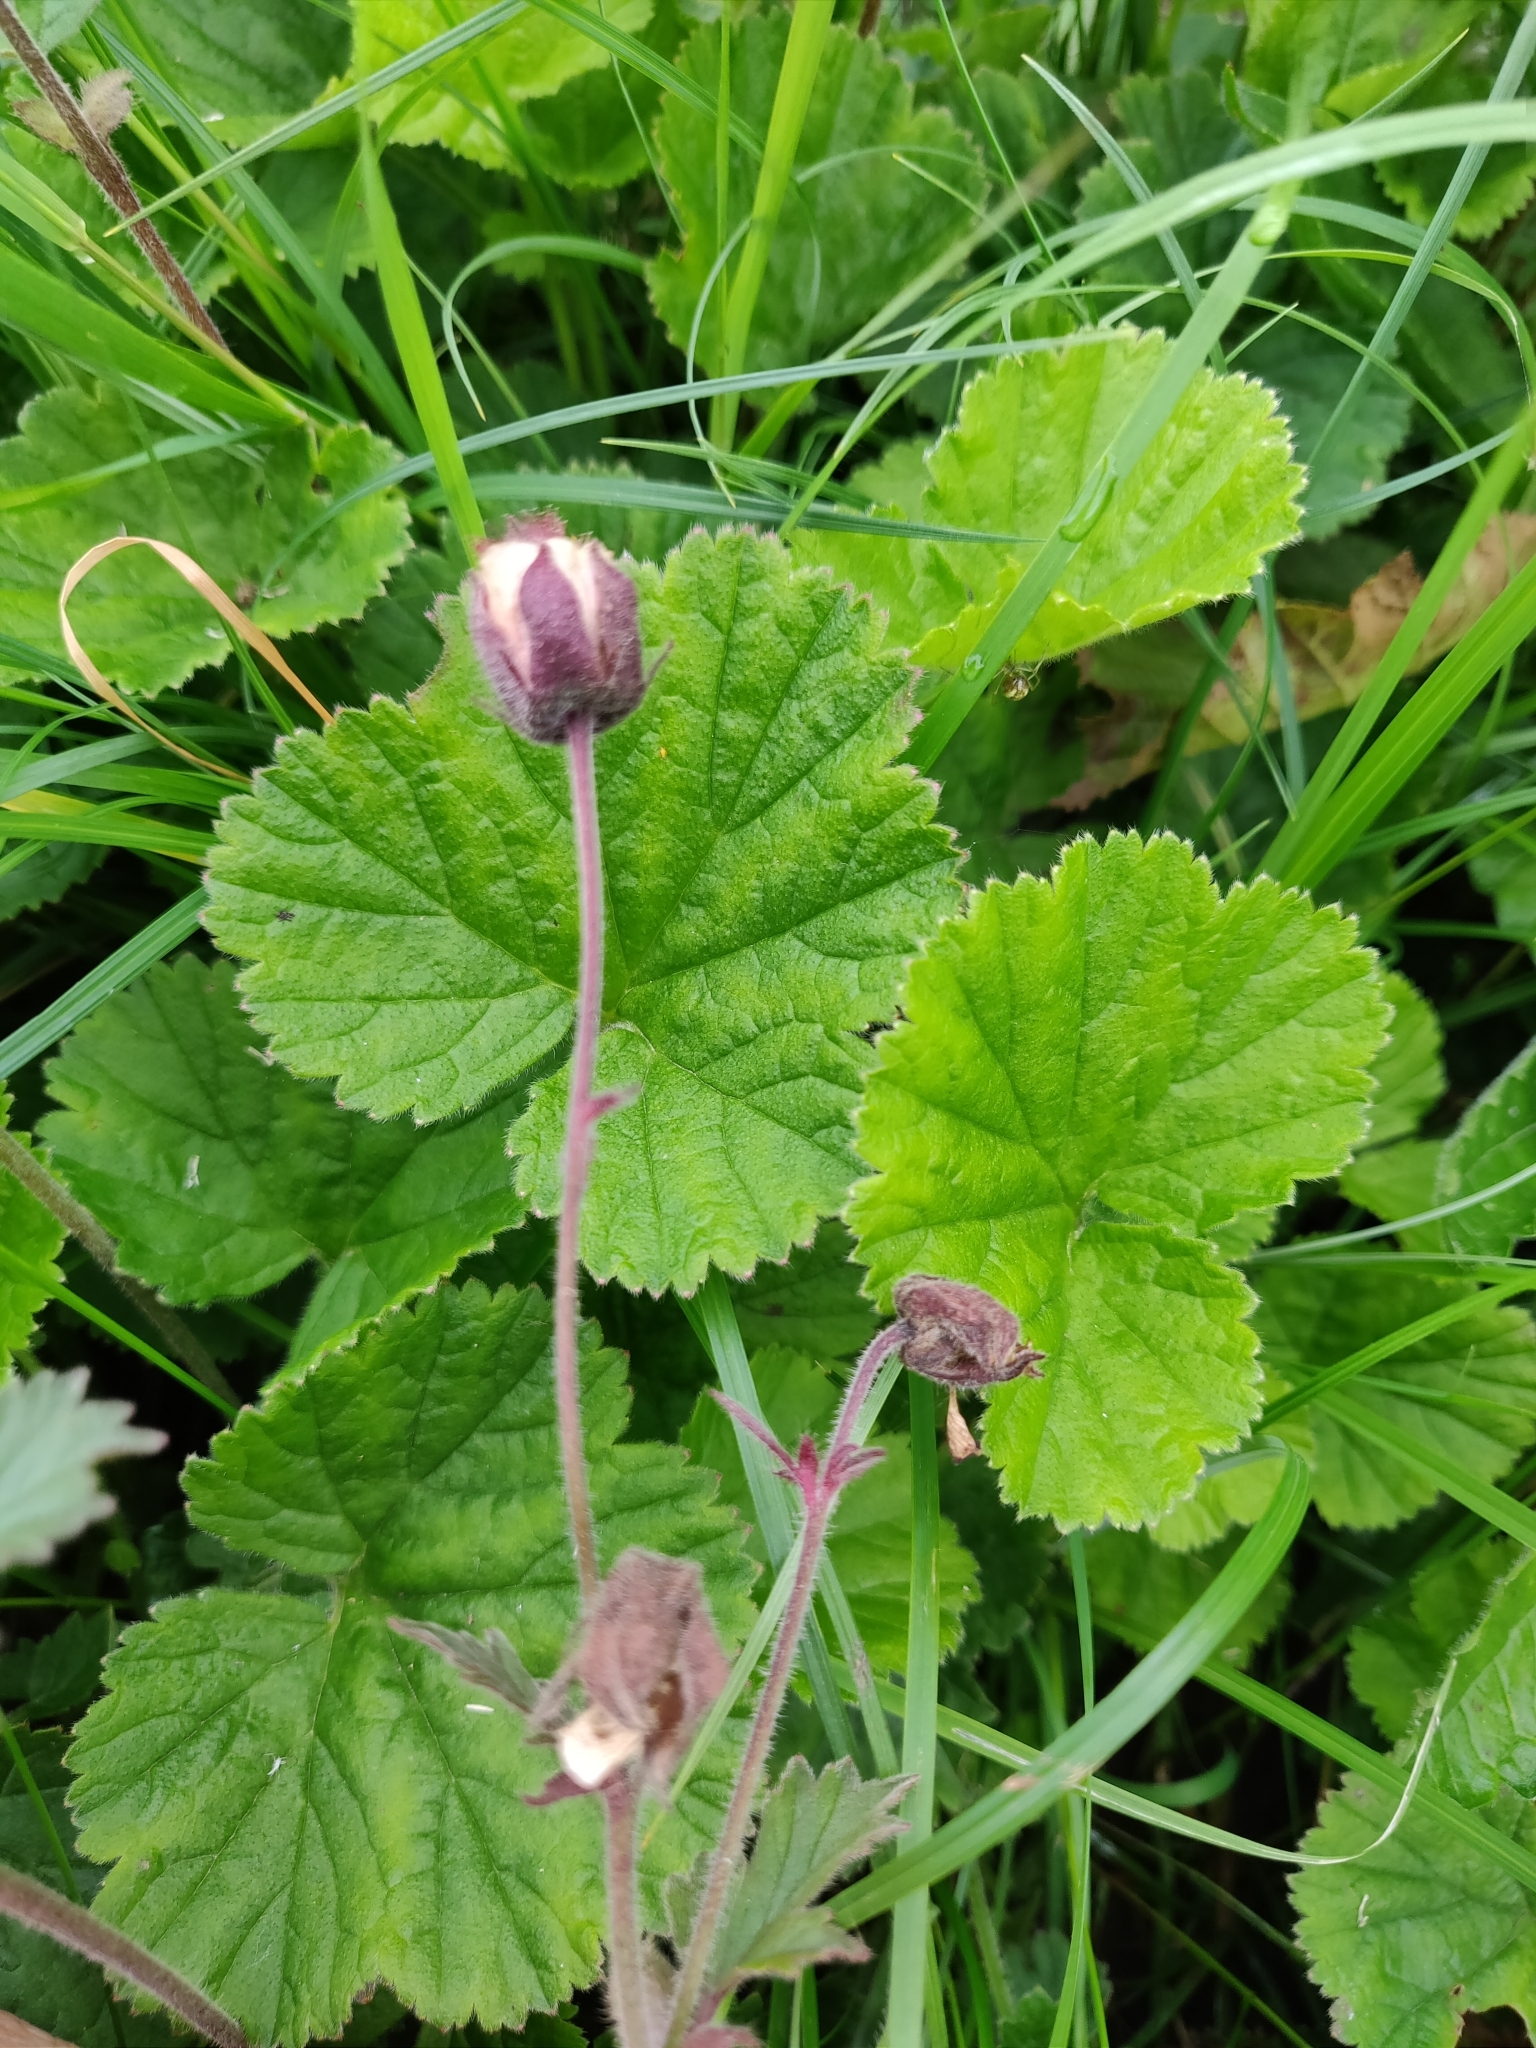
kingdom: Plantae
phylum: Tracheophyta
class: Magnoliopsida
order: Rosales
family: Rosaceae
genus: Geum
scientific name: Geum rivale
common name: Water avens
